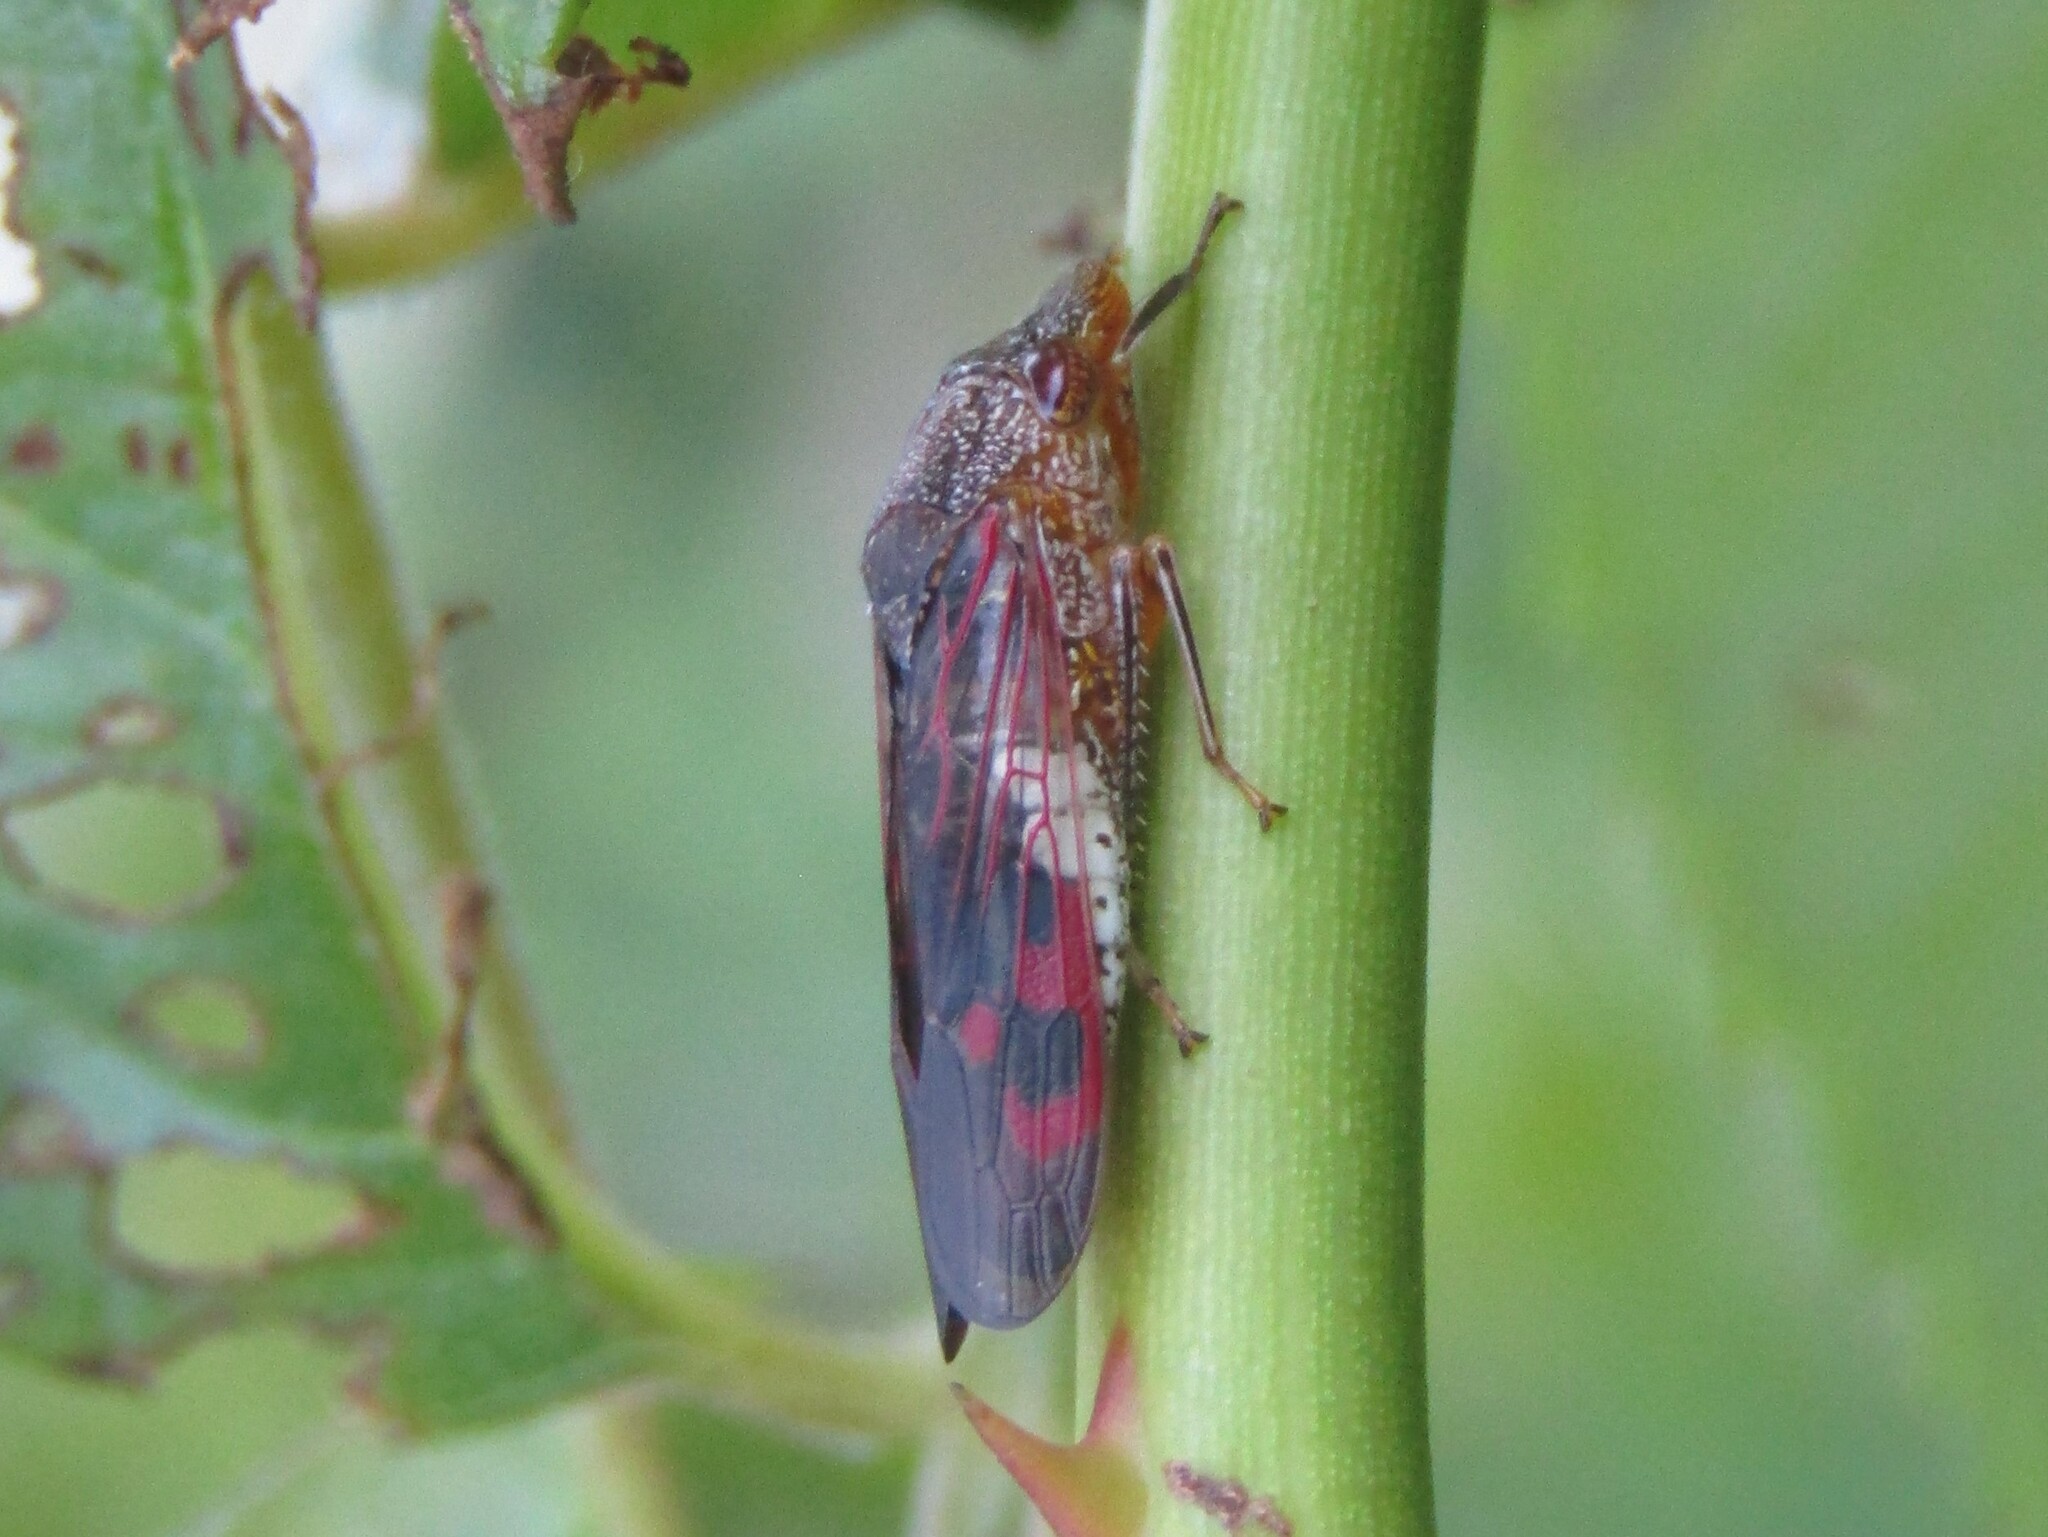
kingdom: Animalia
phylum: Arthropoda
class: Insecta
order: Hemiptera
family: Cicadellidae
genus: Homalodisca
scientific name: Homalodisca vitripennis
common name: Glassy-winged sharpshooter
